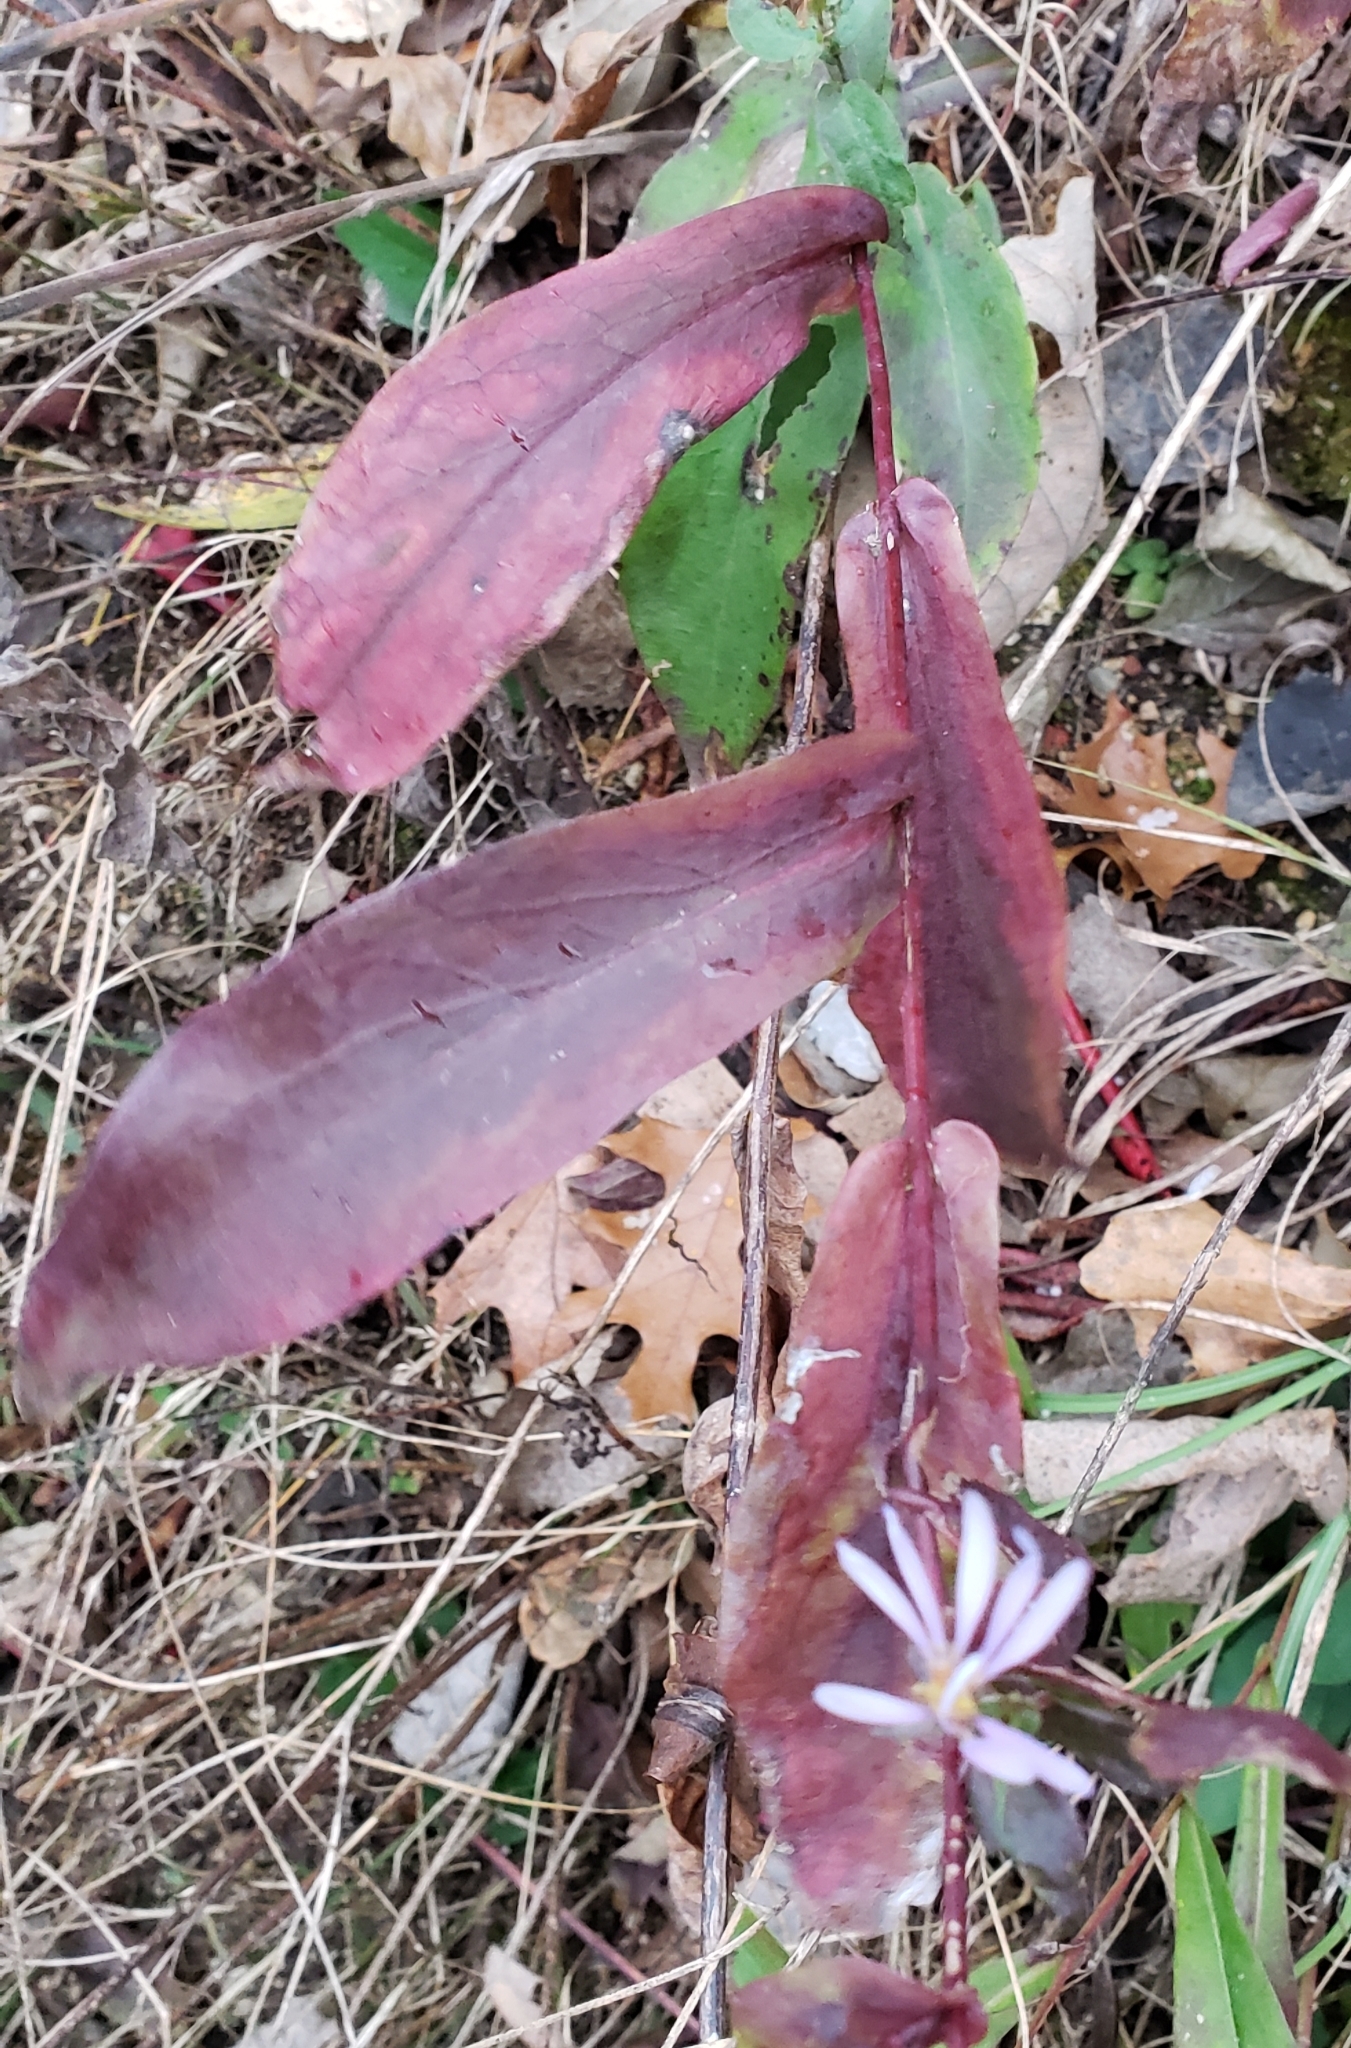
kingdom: Plantae
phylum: Tracheophyta
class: Magnoliopsida
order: Asterales
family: Asteraceae
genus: Symphyotrichum
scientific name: Symphyotrichum laeve
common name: Glaucous aster
